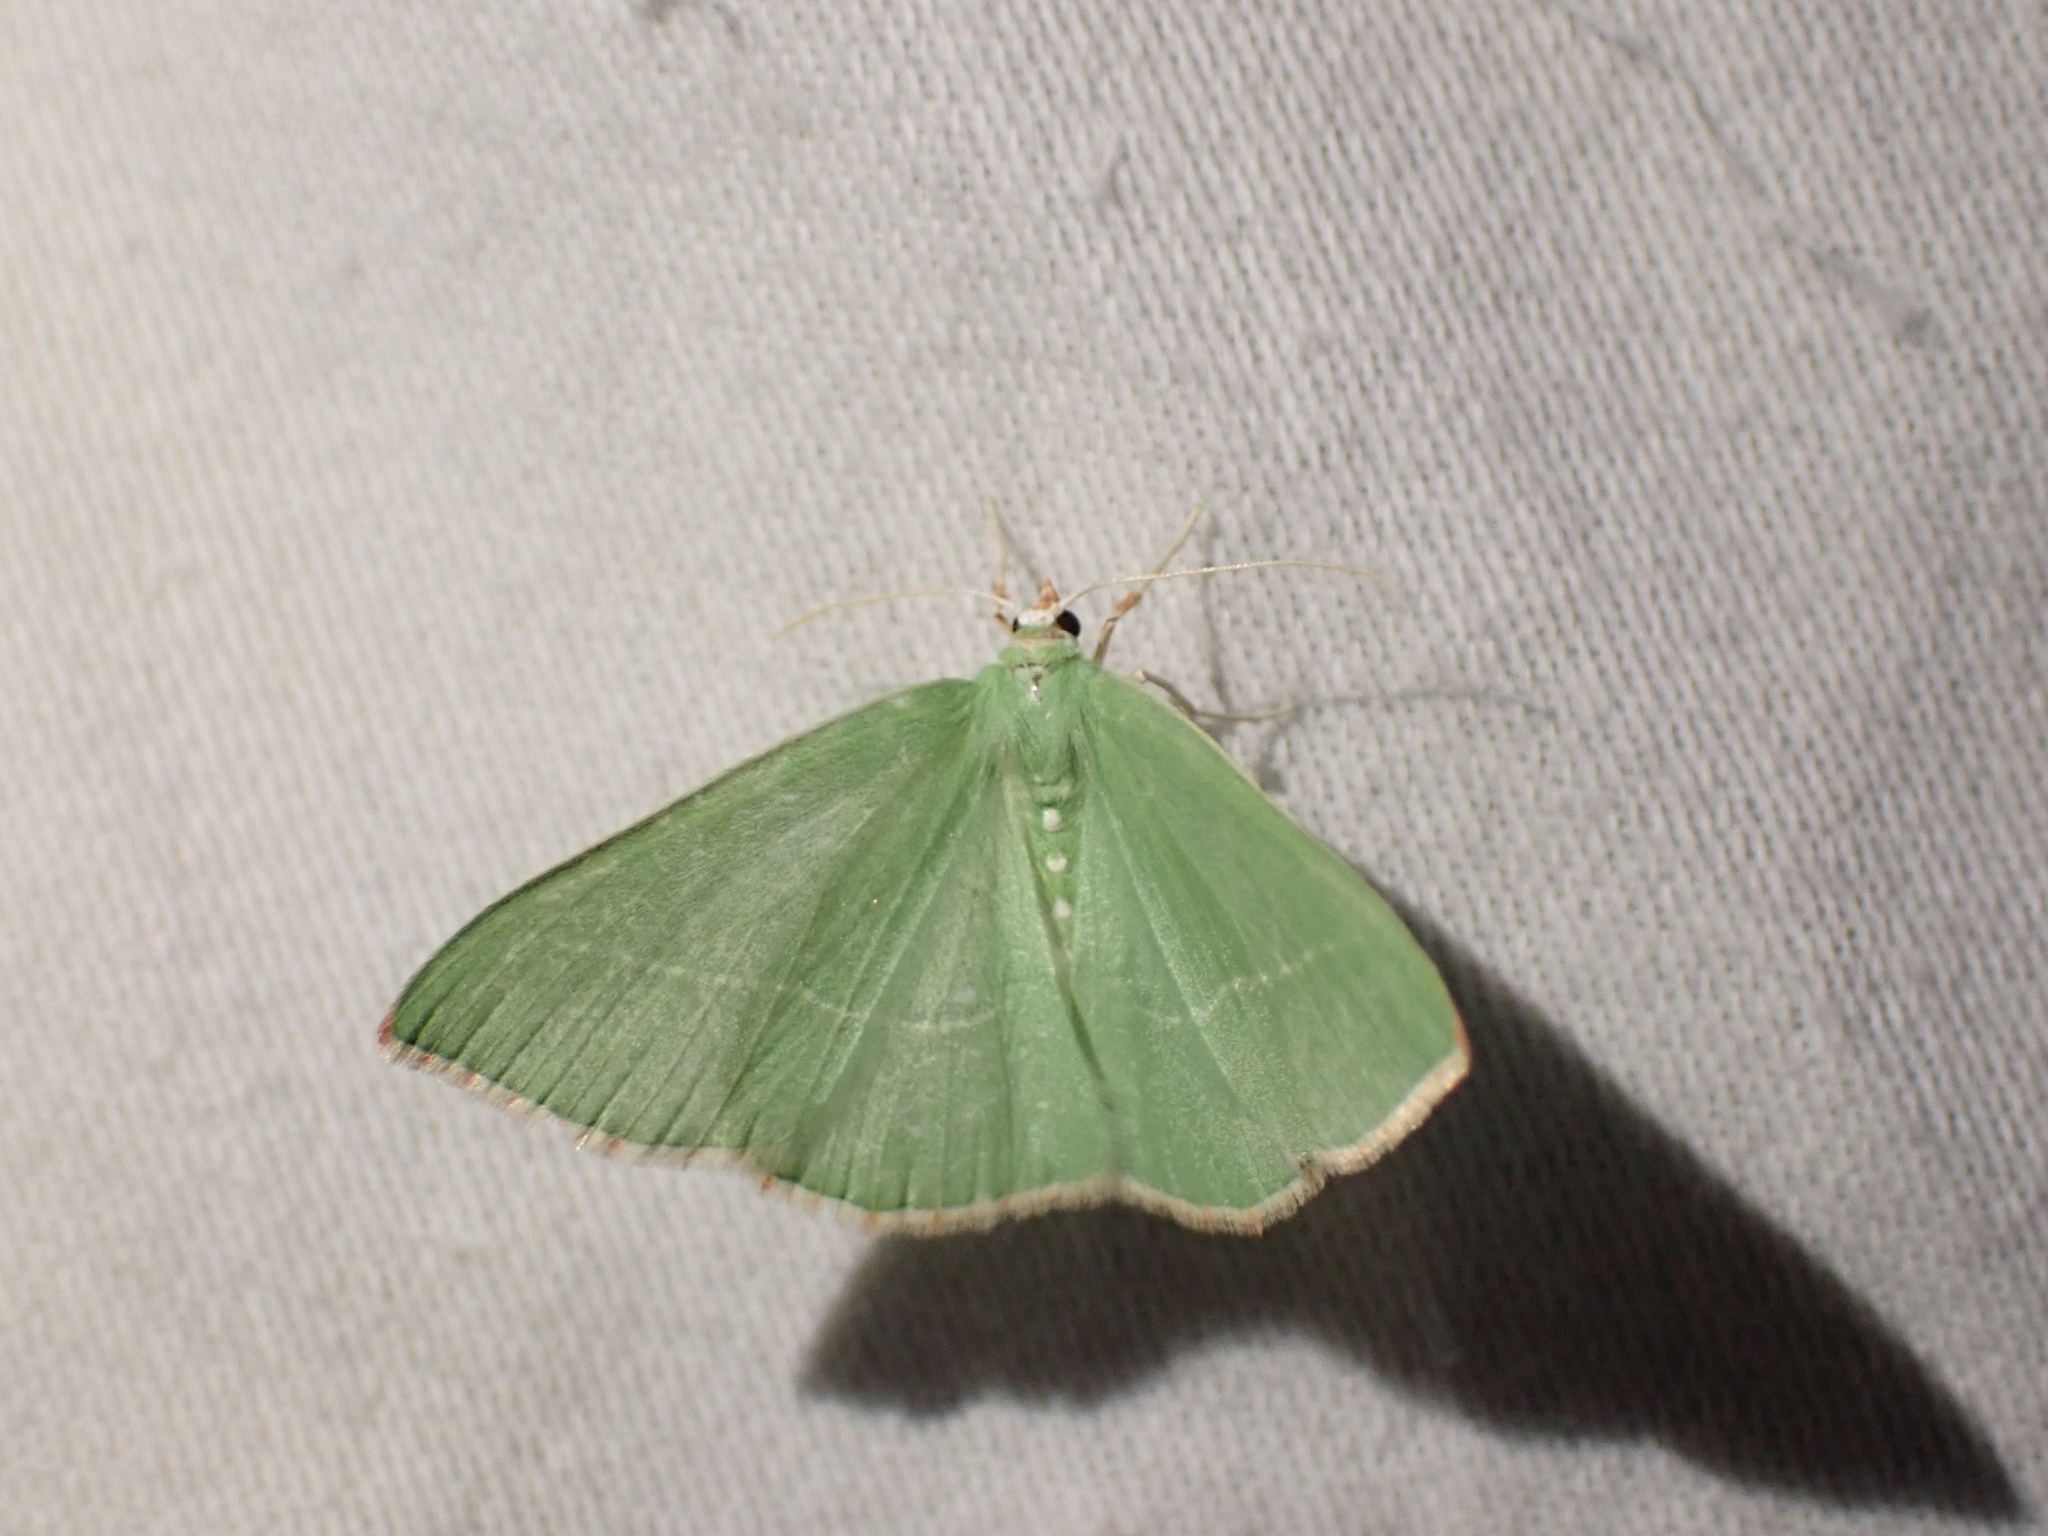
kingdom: Animalia
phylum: Arthropoda
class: Insecta
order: Lepidoptera
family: Geometridae
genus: Nemoria
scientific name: Nemoria unitaria
